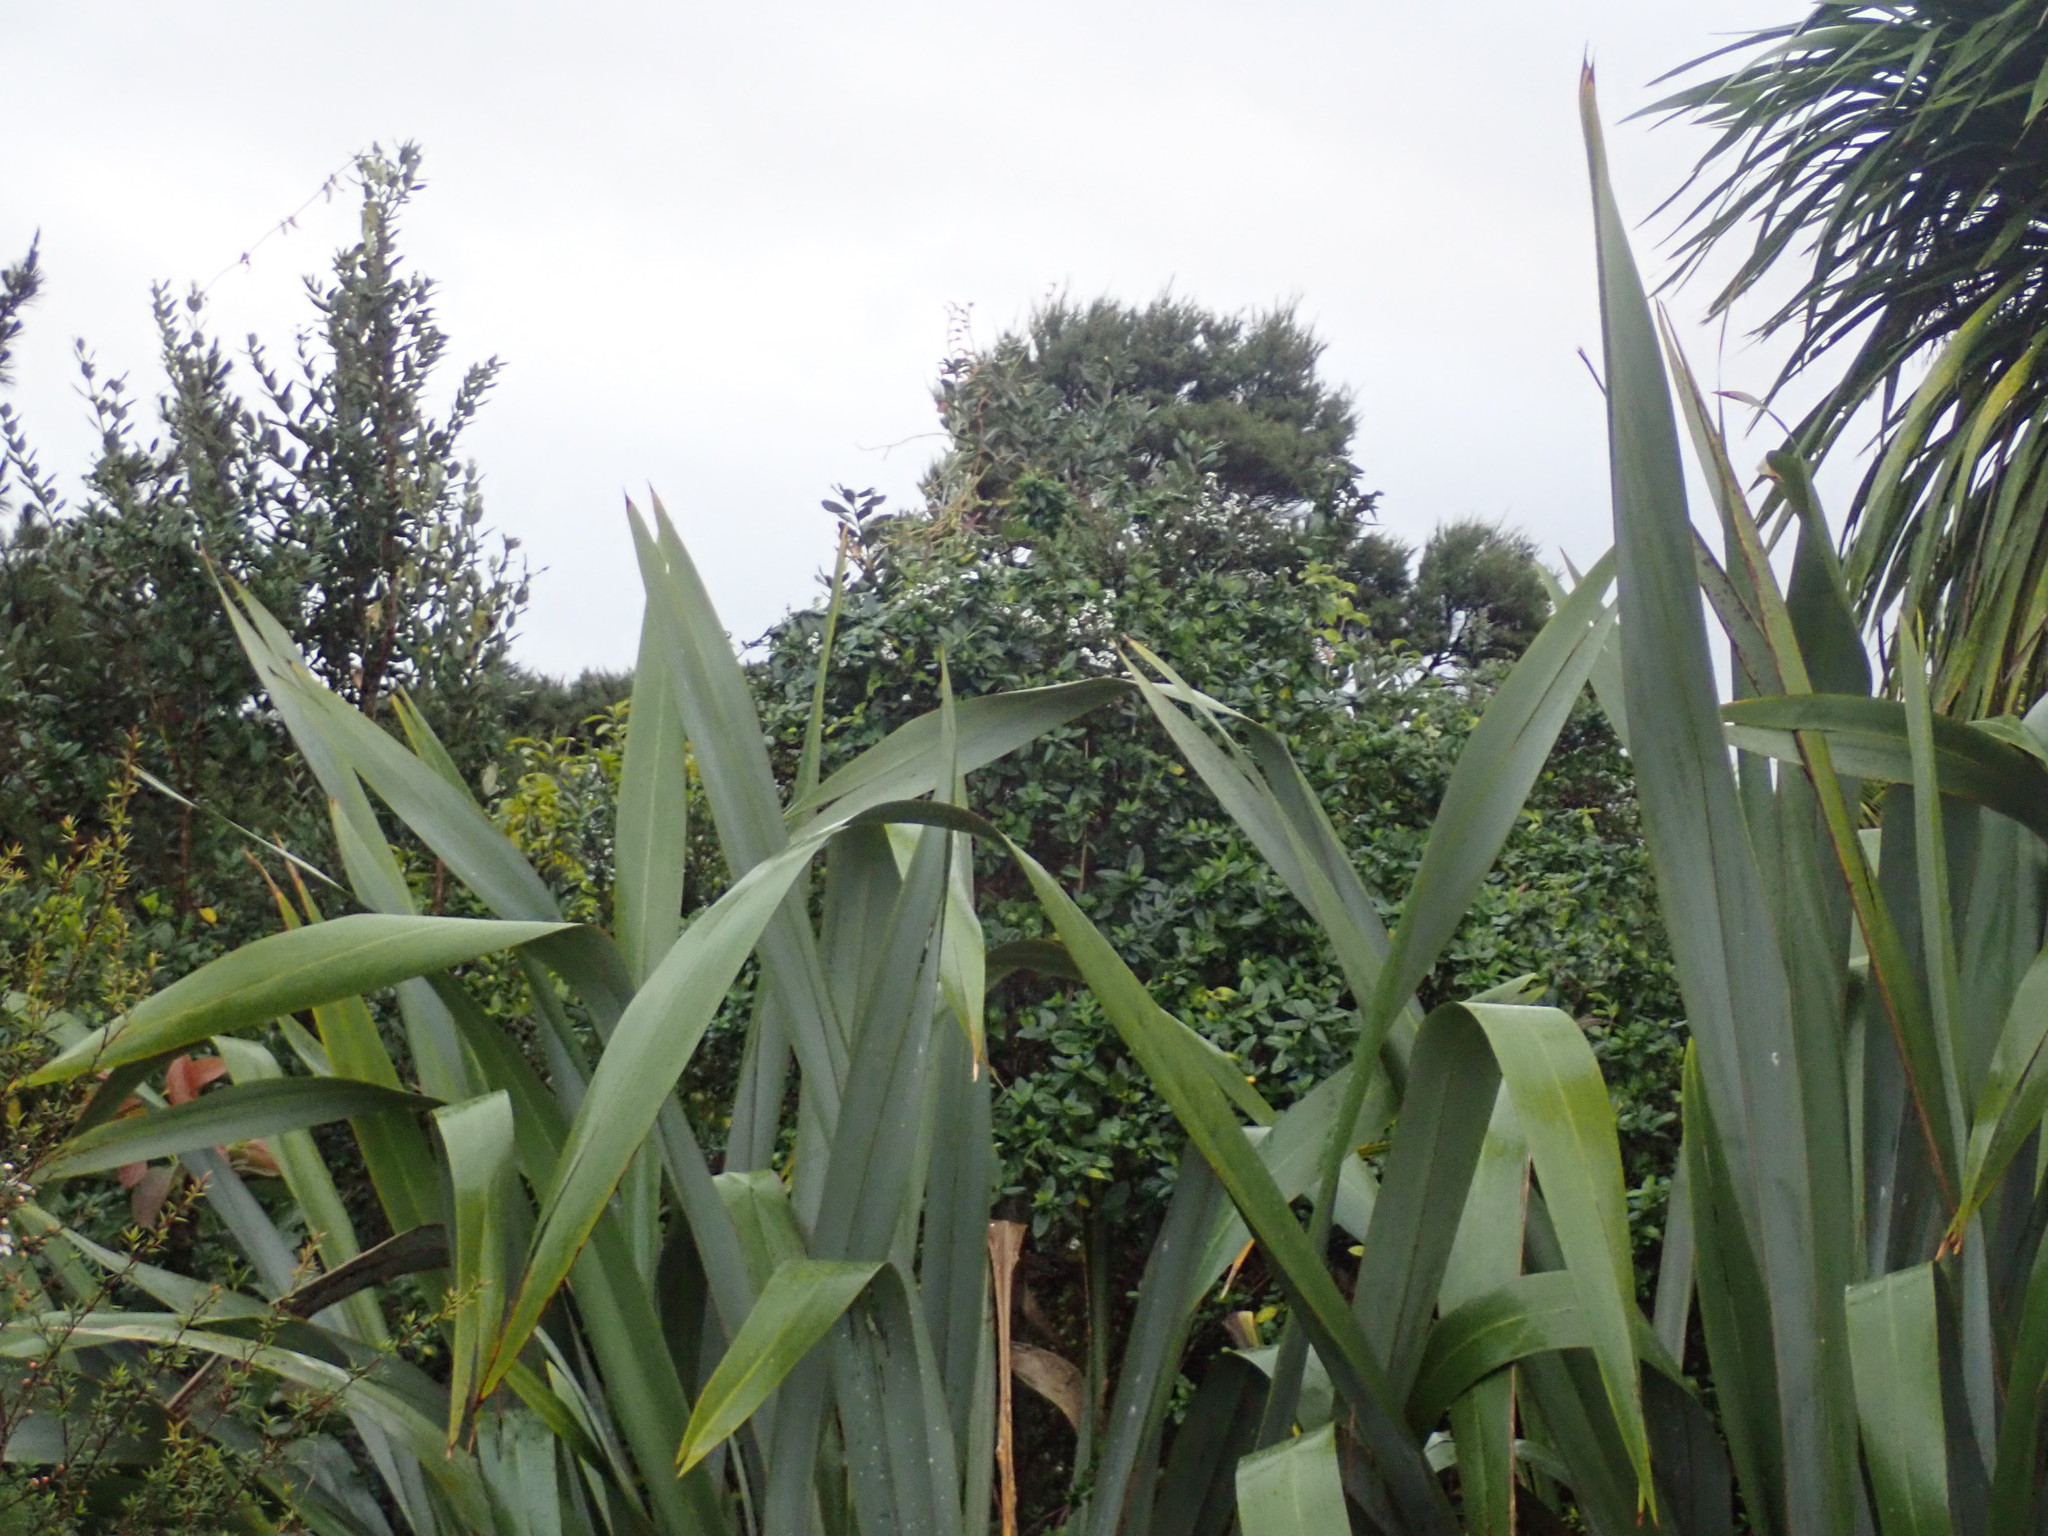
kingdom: Plantae
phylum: Tracheophyta
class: Magnoliopsida
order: Dipsacales
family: Caprifoliaceae
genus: Lonicera
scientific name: Lonicera japonica
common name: Japanese honeysuckle
